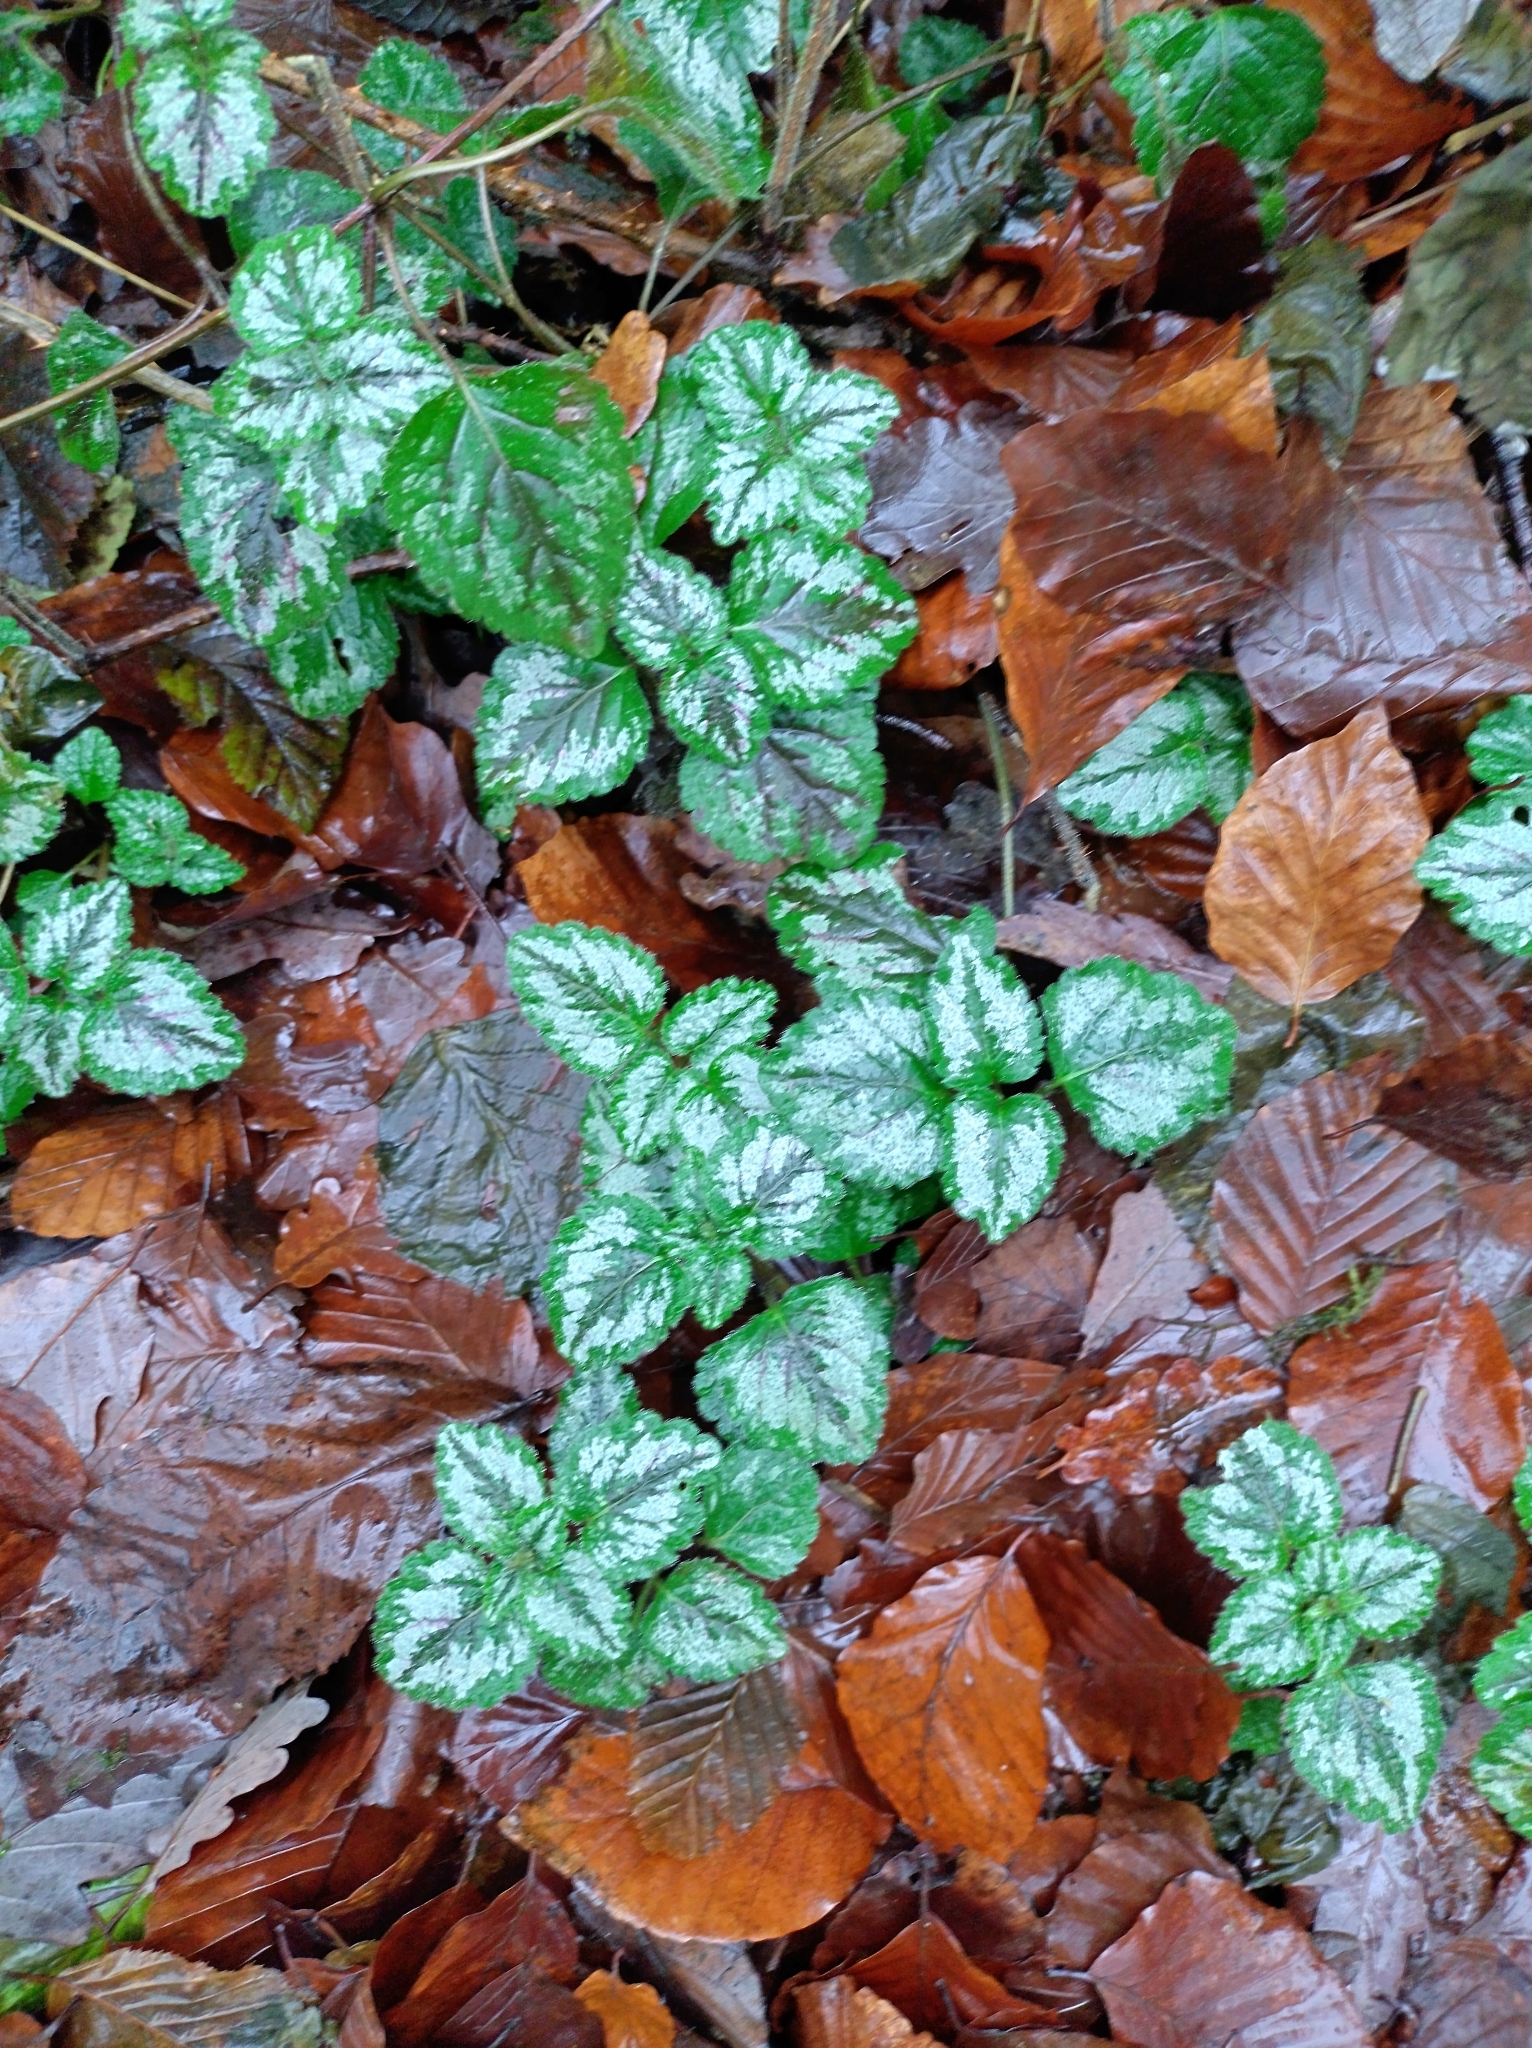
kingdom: Plantae
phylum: Tracheophyta
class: Magnoliopsida
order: Lamiales
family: Lamiaceae
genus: Lamium
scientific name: Lamium galeobdolon
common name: Yellow archangel
